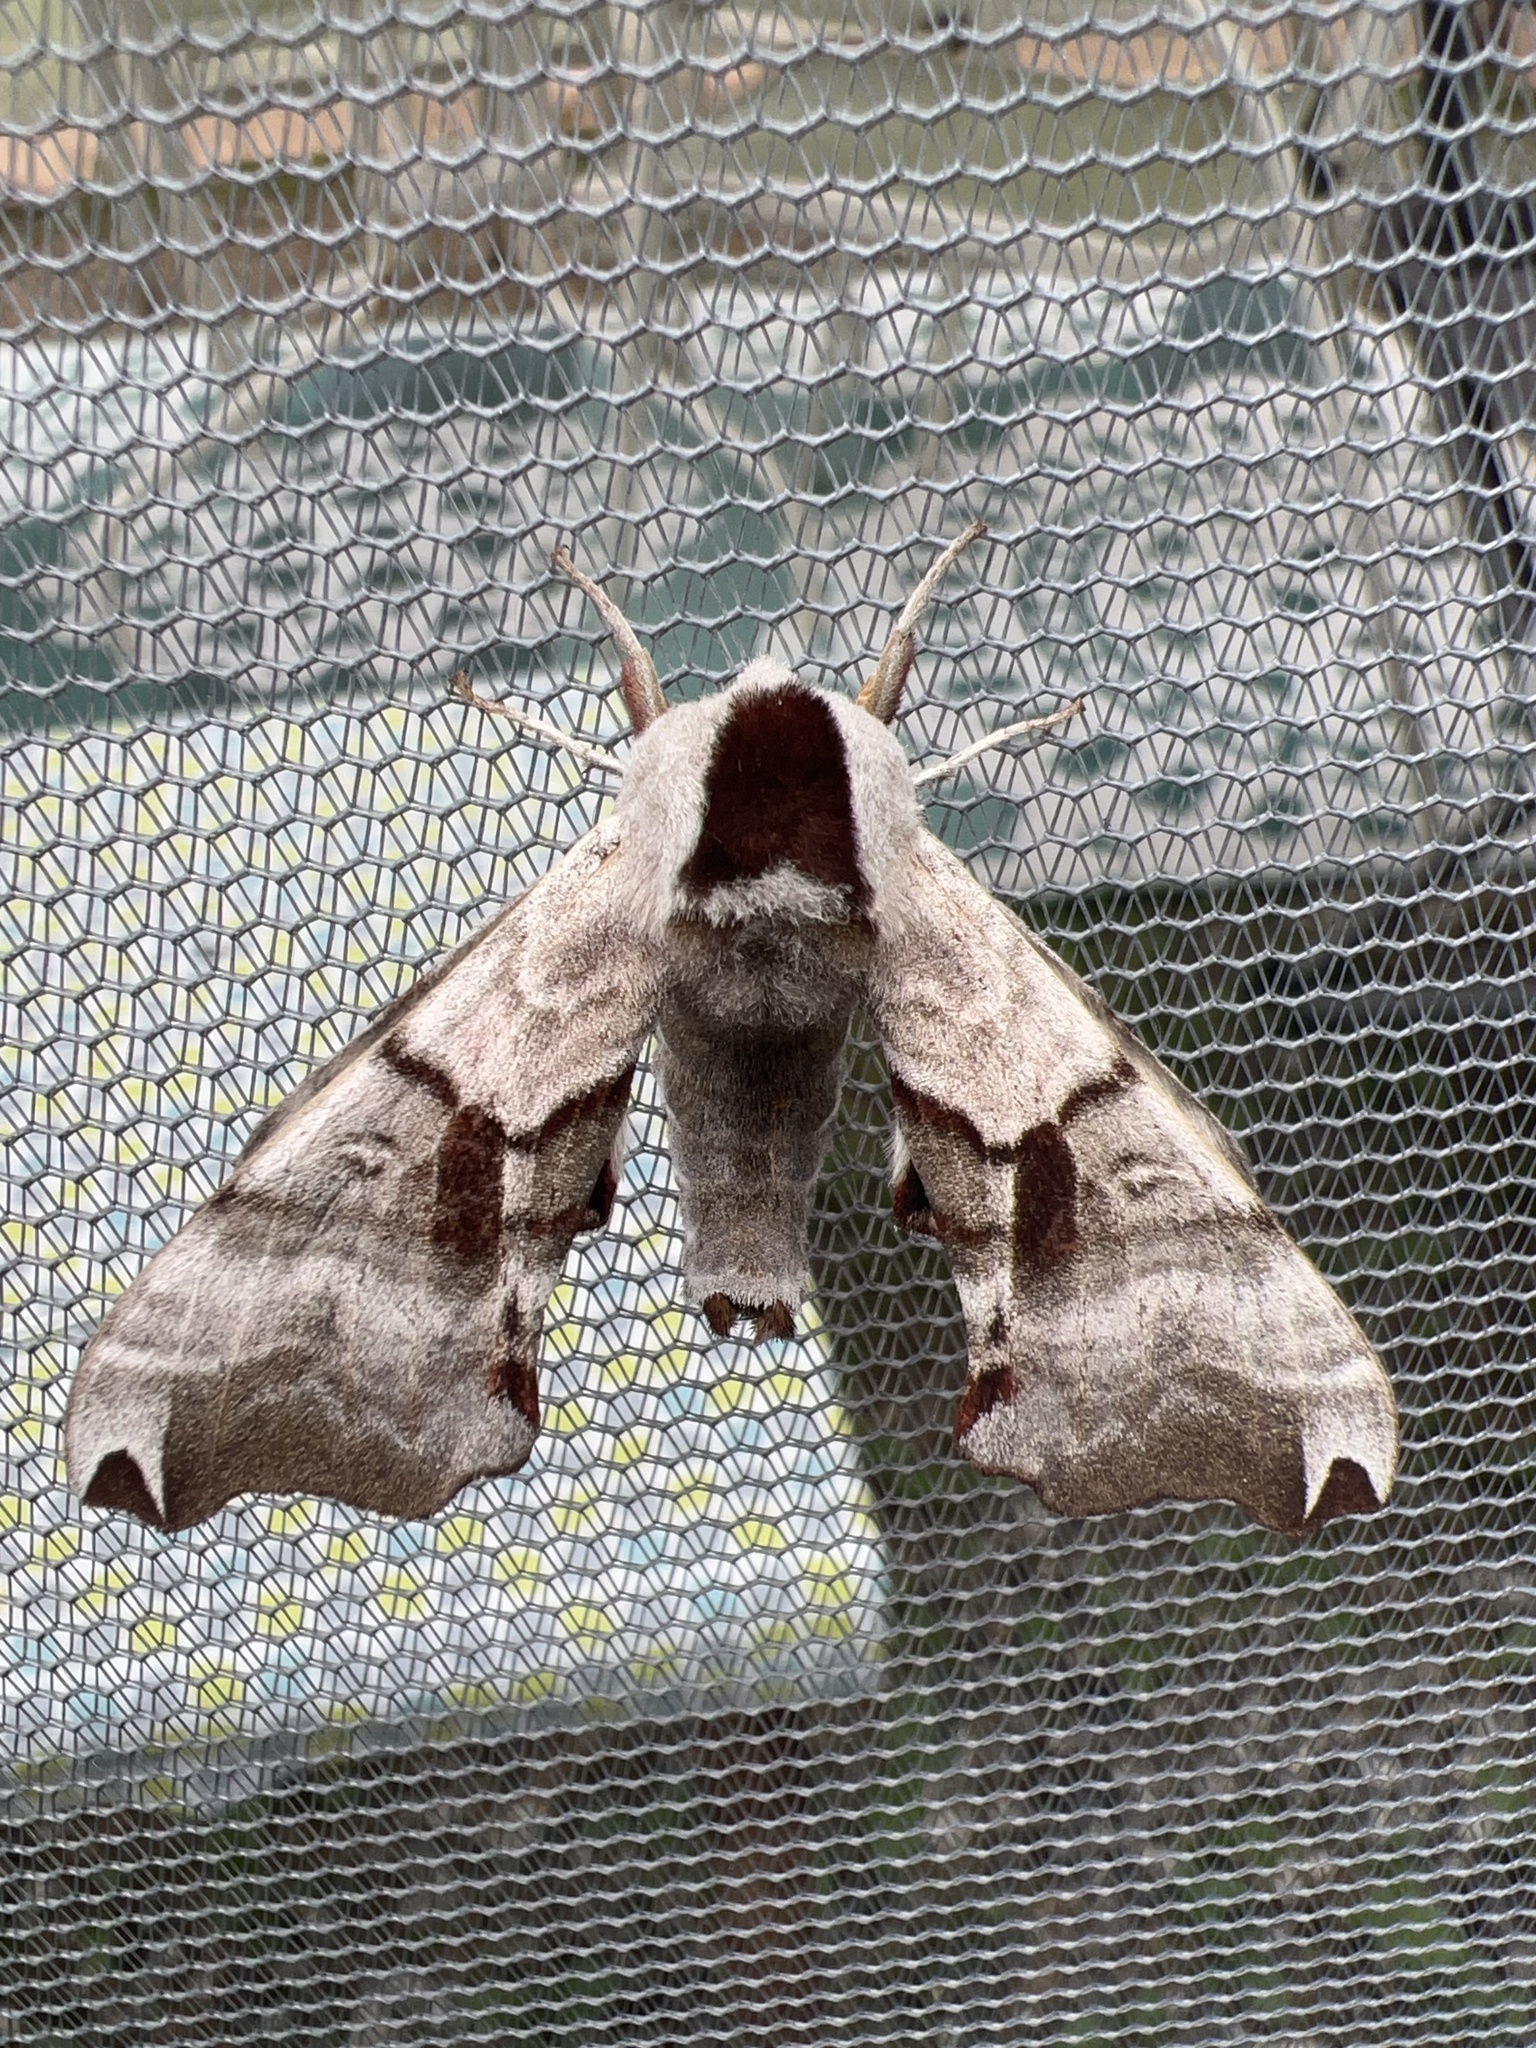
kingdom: Animalia
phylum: Arthropoda
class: Insecta
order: Lepidoptera
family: Sphingidae
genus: Smerinthus
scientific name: Smerinthus jamaicensis
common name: Twin spotted sphinx
